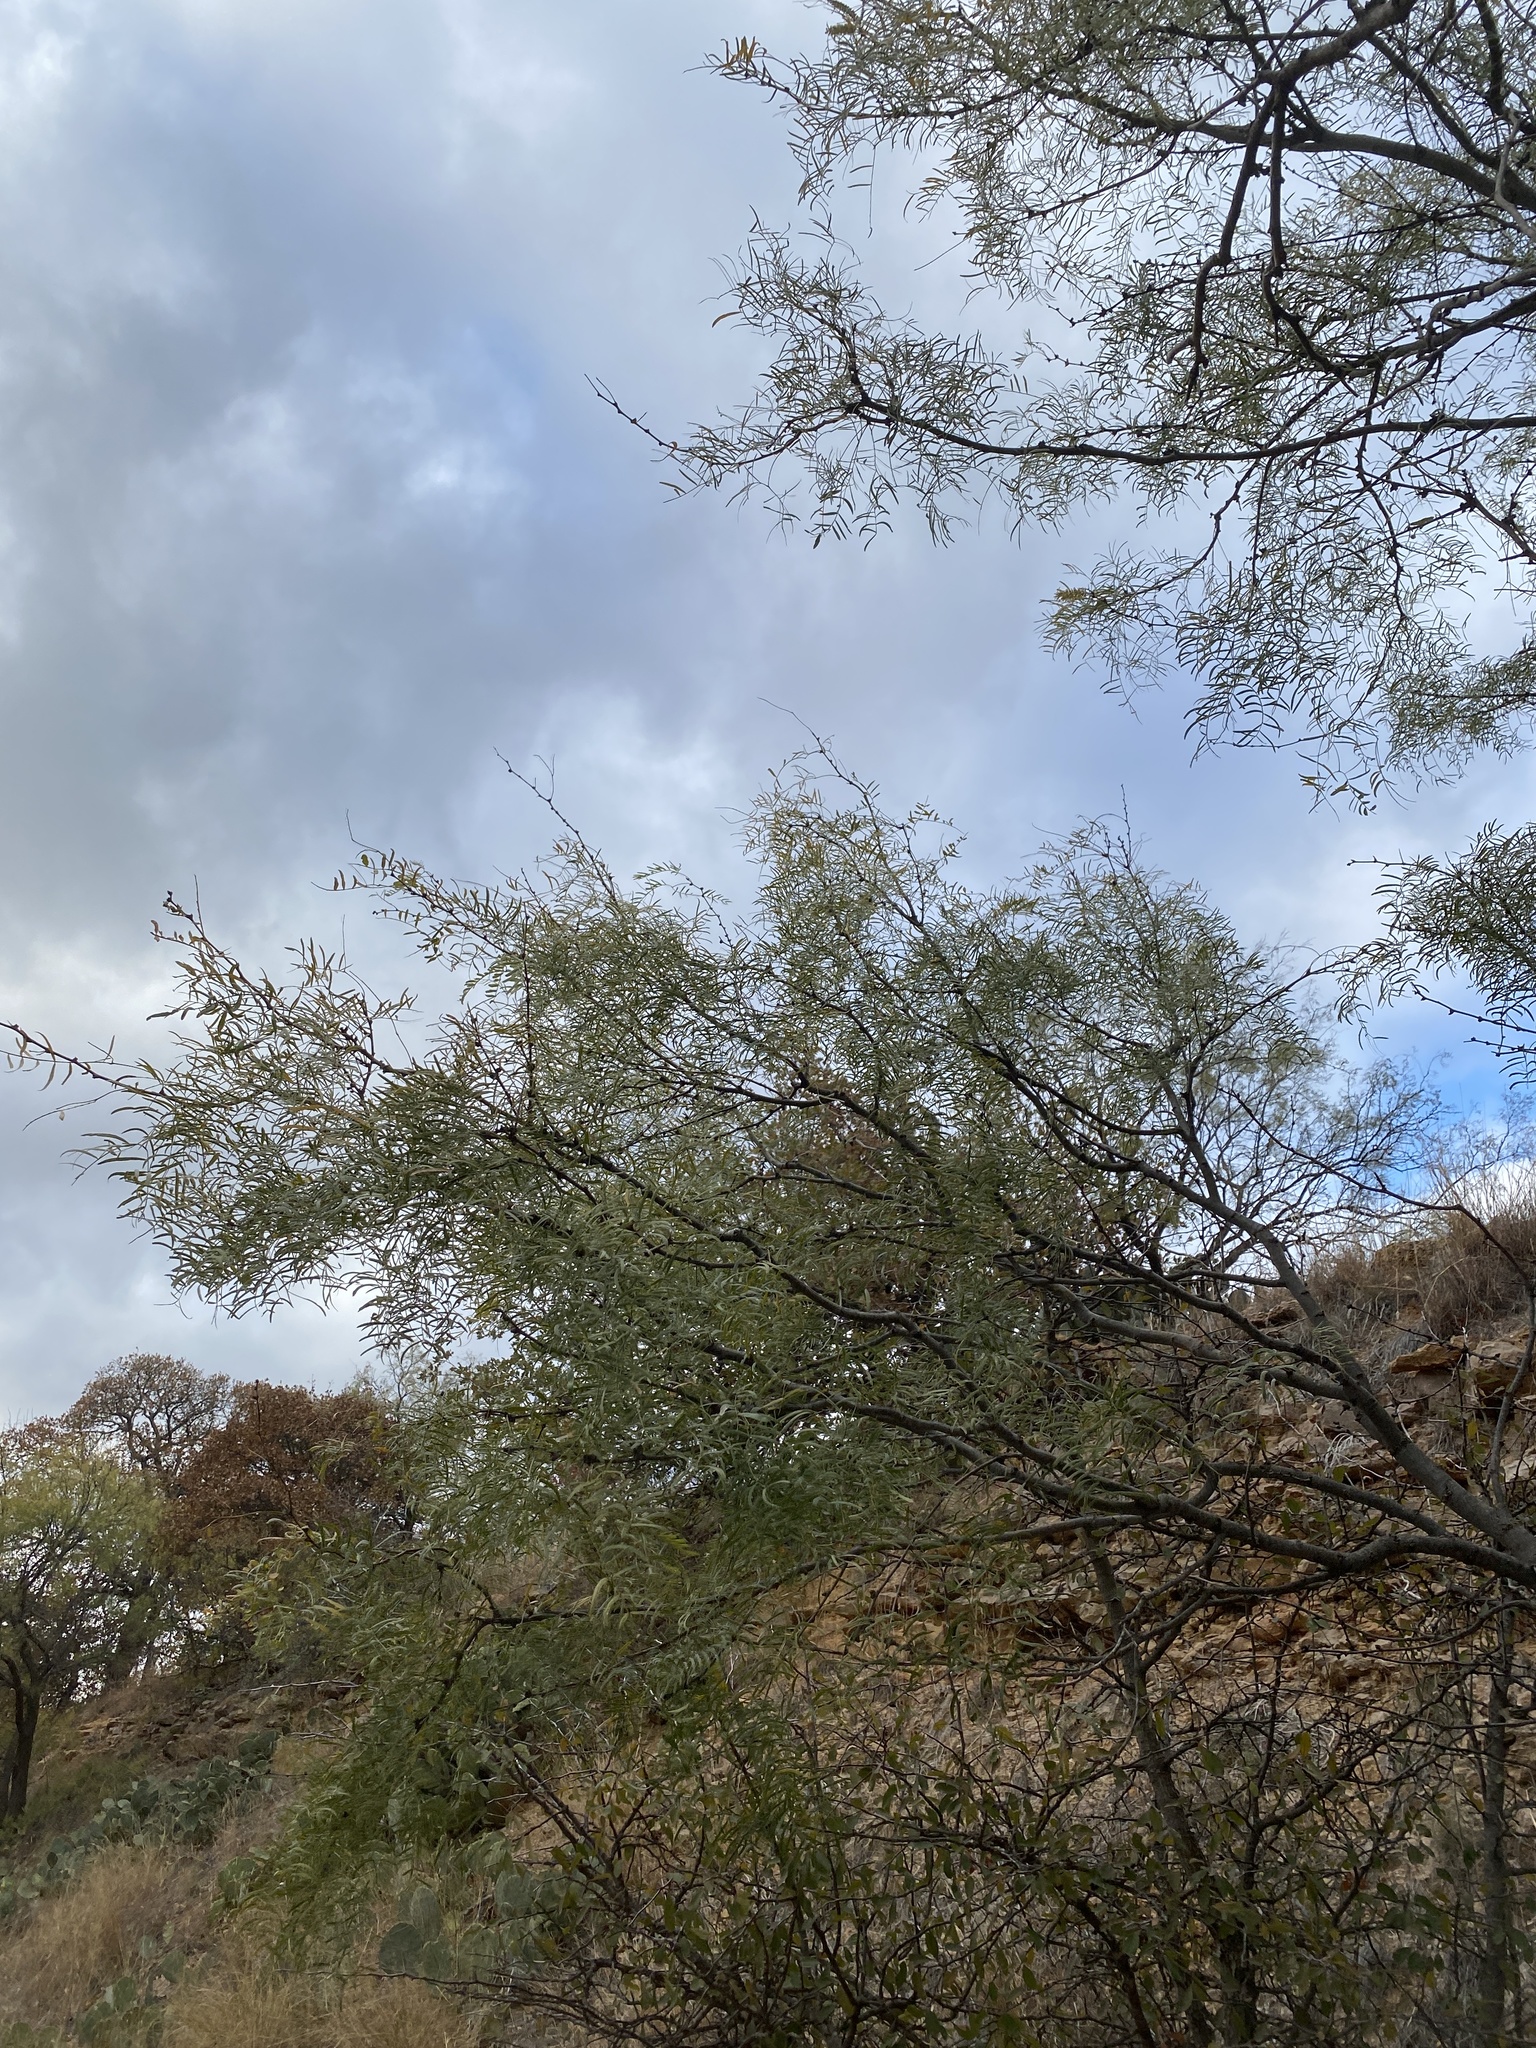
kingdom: Plantae
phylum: Tracheophyta
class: Magnoliopsida
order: Fabales
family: Fabaceae
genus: Prosopis
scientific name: Prosopis glandulosa
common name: Honey mesquite
